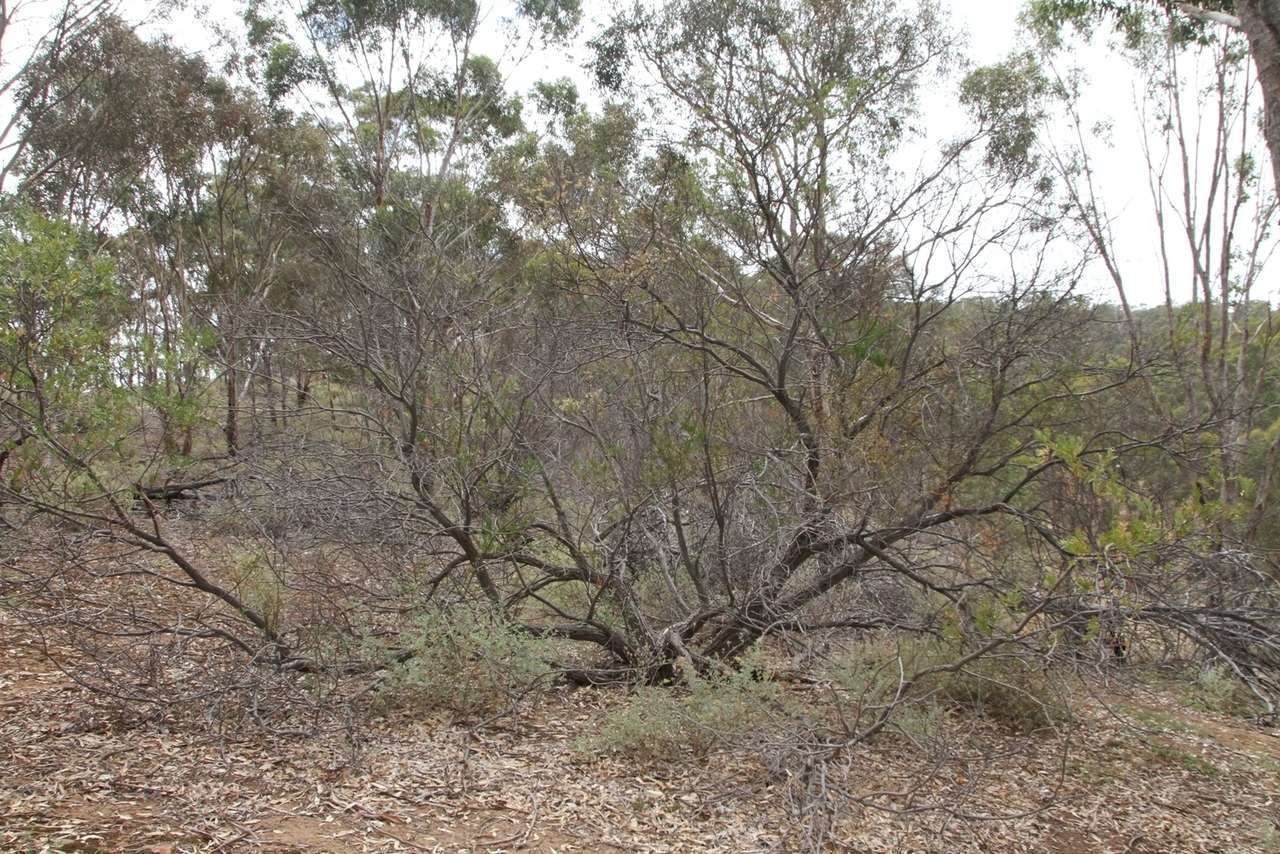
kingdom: Plantae
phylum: Tracheophyta
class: Magnoliopsida
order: Fabales
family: Fabaceae
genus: Acacia
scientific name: Acacia rostriformis
